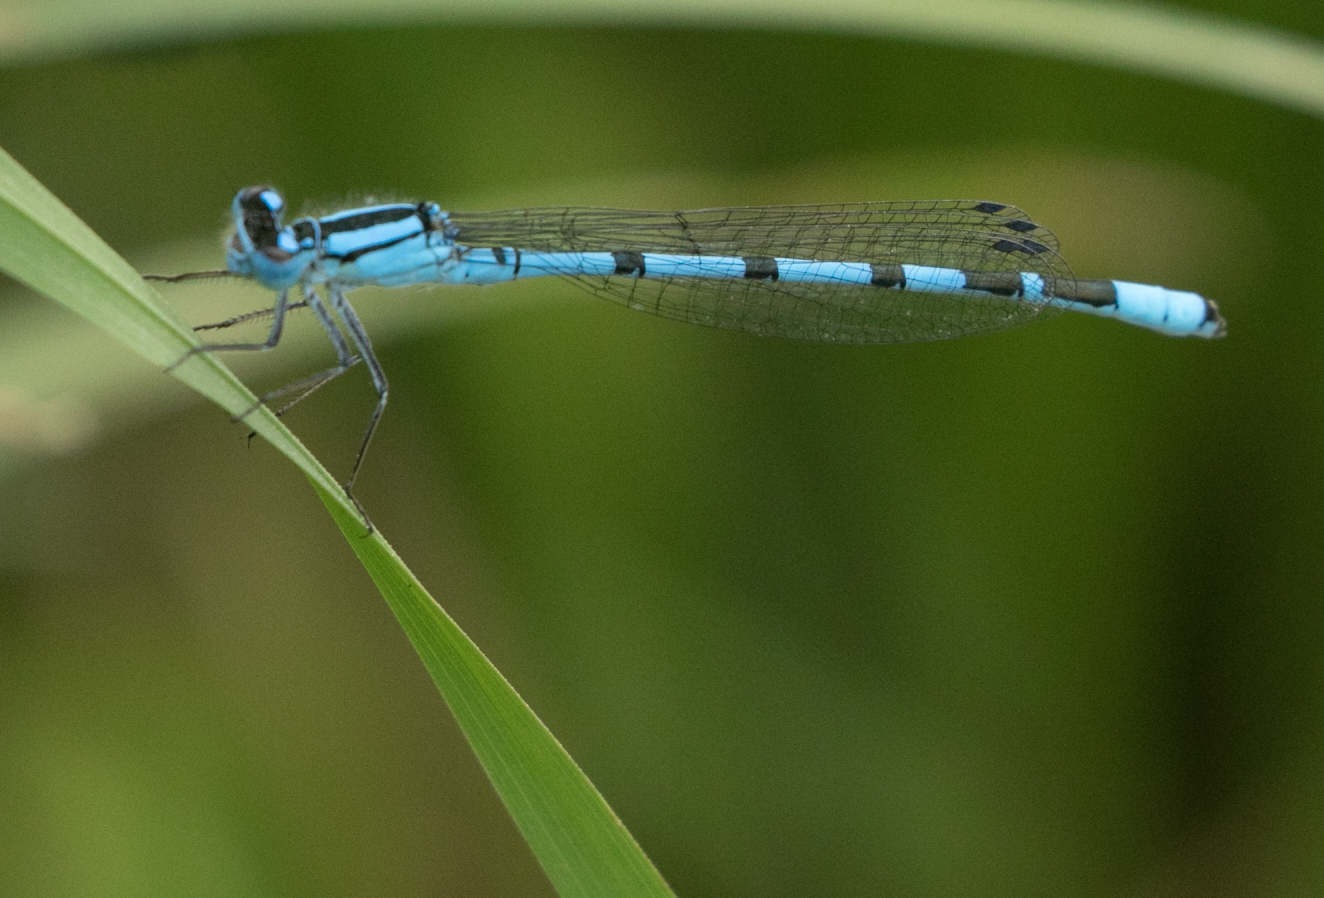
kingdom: Animalia
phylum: Arthropoda
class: Insecta
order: Odonata
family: Coenagrionidae
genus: Enallagma
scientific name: Enallagma cyathigerum
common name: Common blue damselfly
